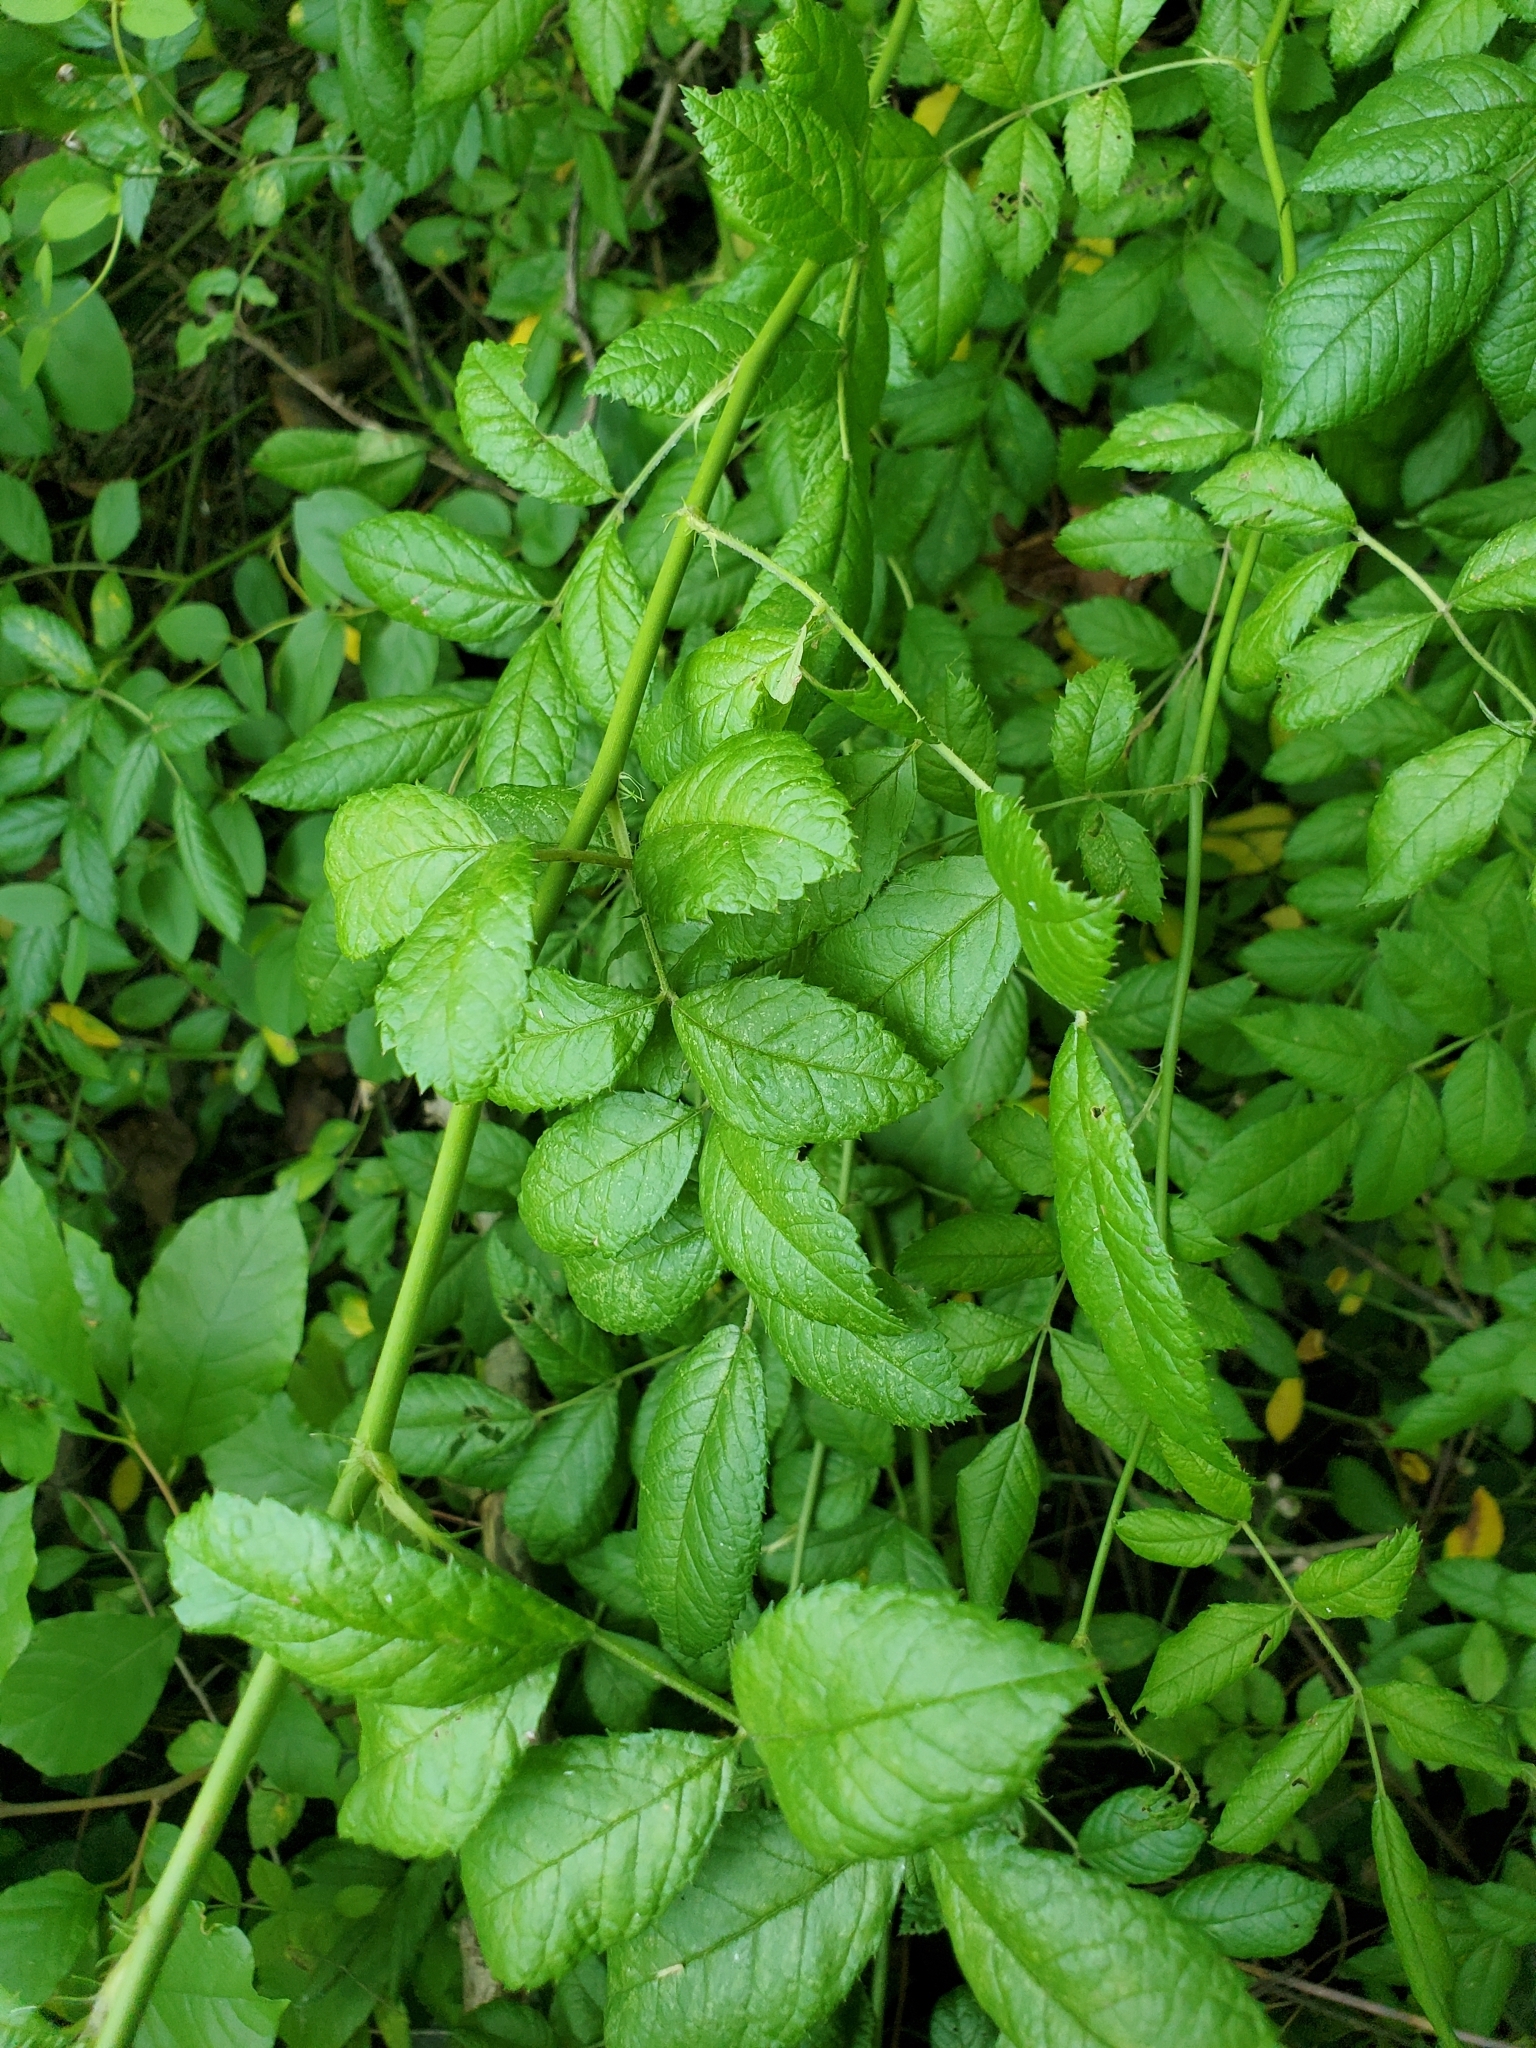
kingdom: Plantae
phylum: Tracheophyta
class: Magnoliopsida
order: Rosales
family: Rosaceae
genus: Rosa
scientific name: Rosa multiflora
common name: Multiflora rose
